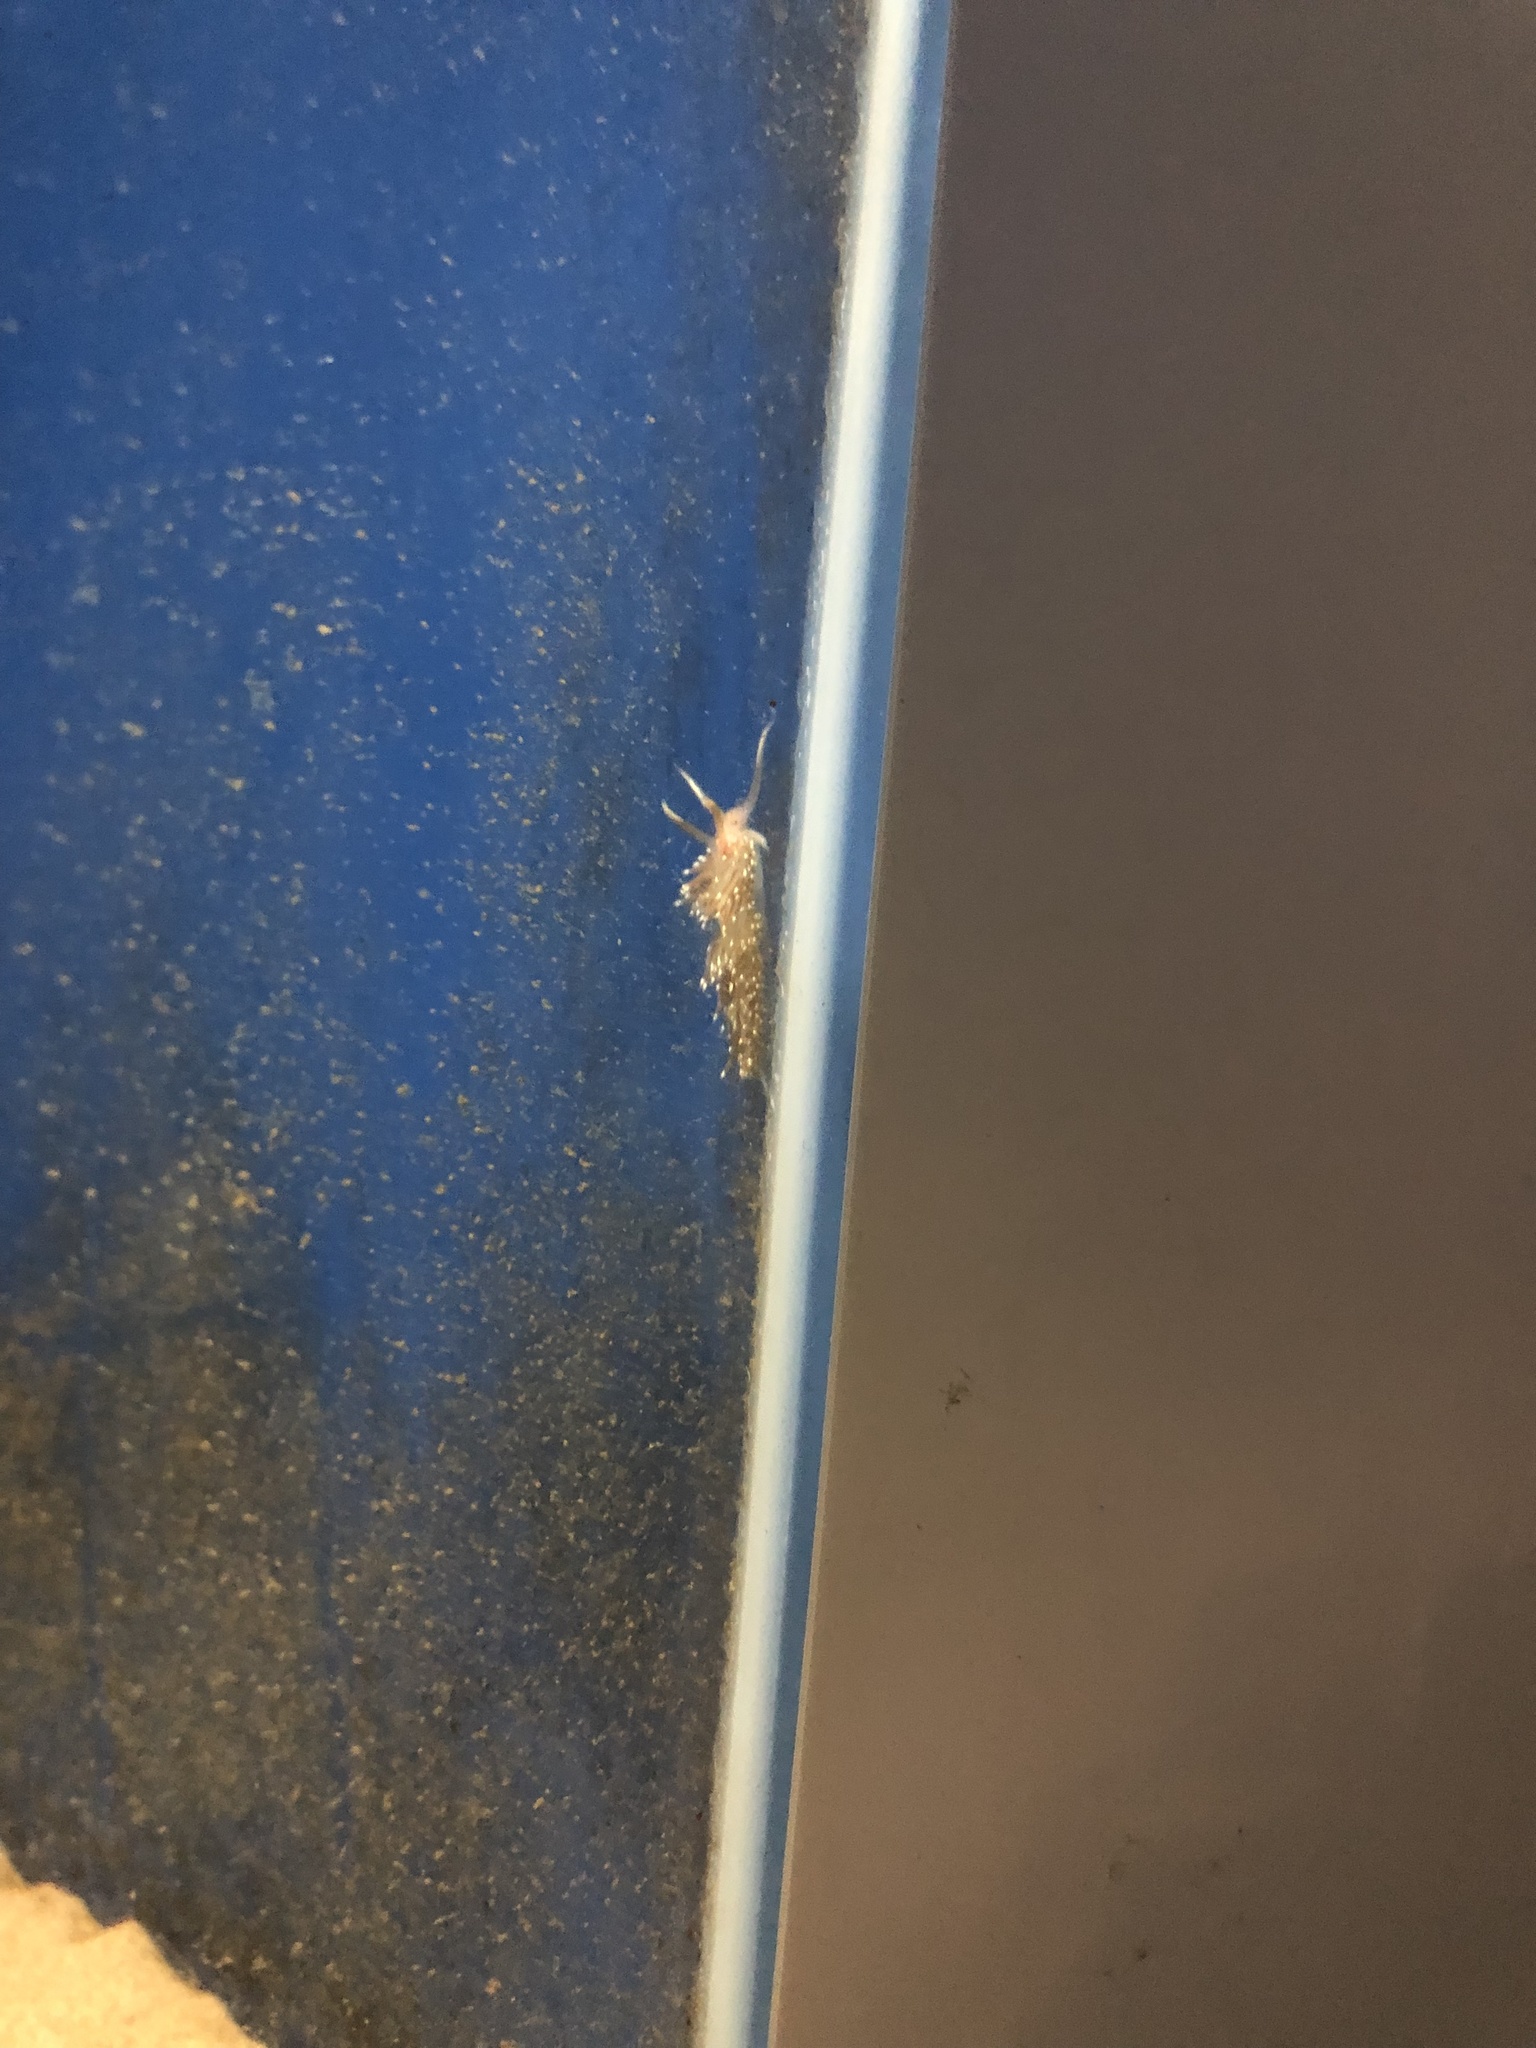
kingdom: Animalia
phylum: Mollusca
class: Gastropoda
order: Nudibranchia
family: Facelinidae
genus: Facelina
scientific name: Facelina bostoniensis
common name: Boston facelina
